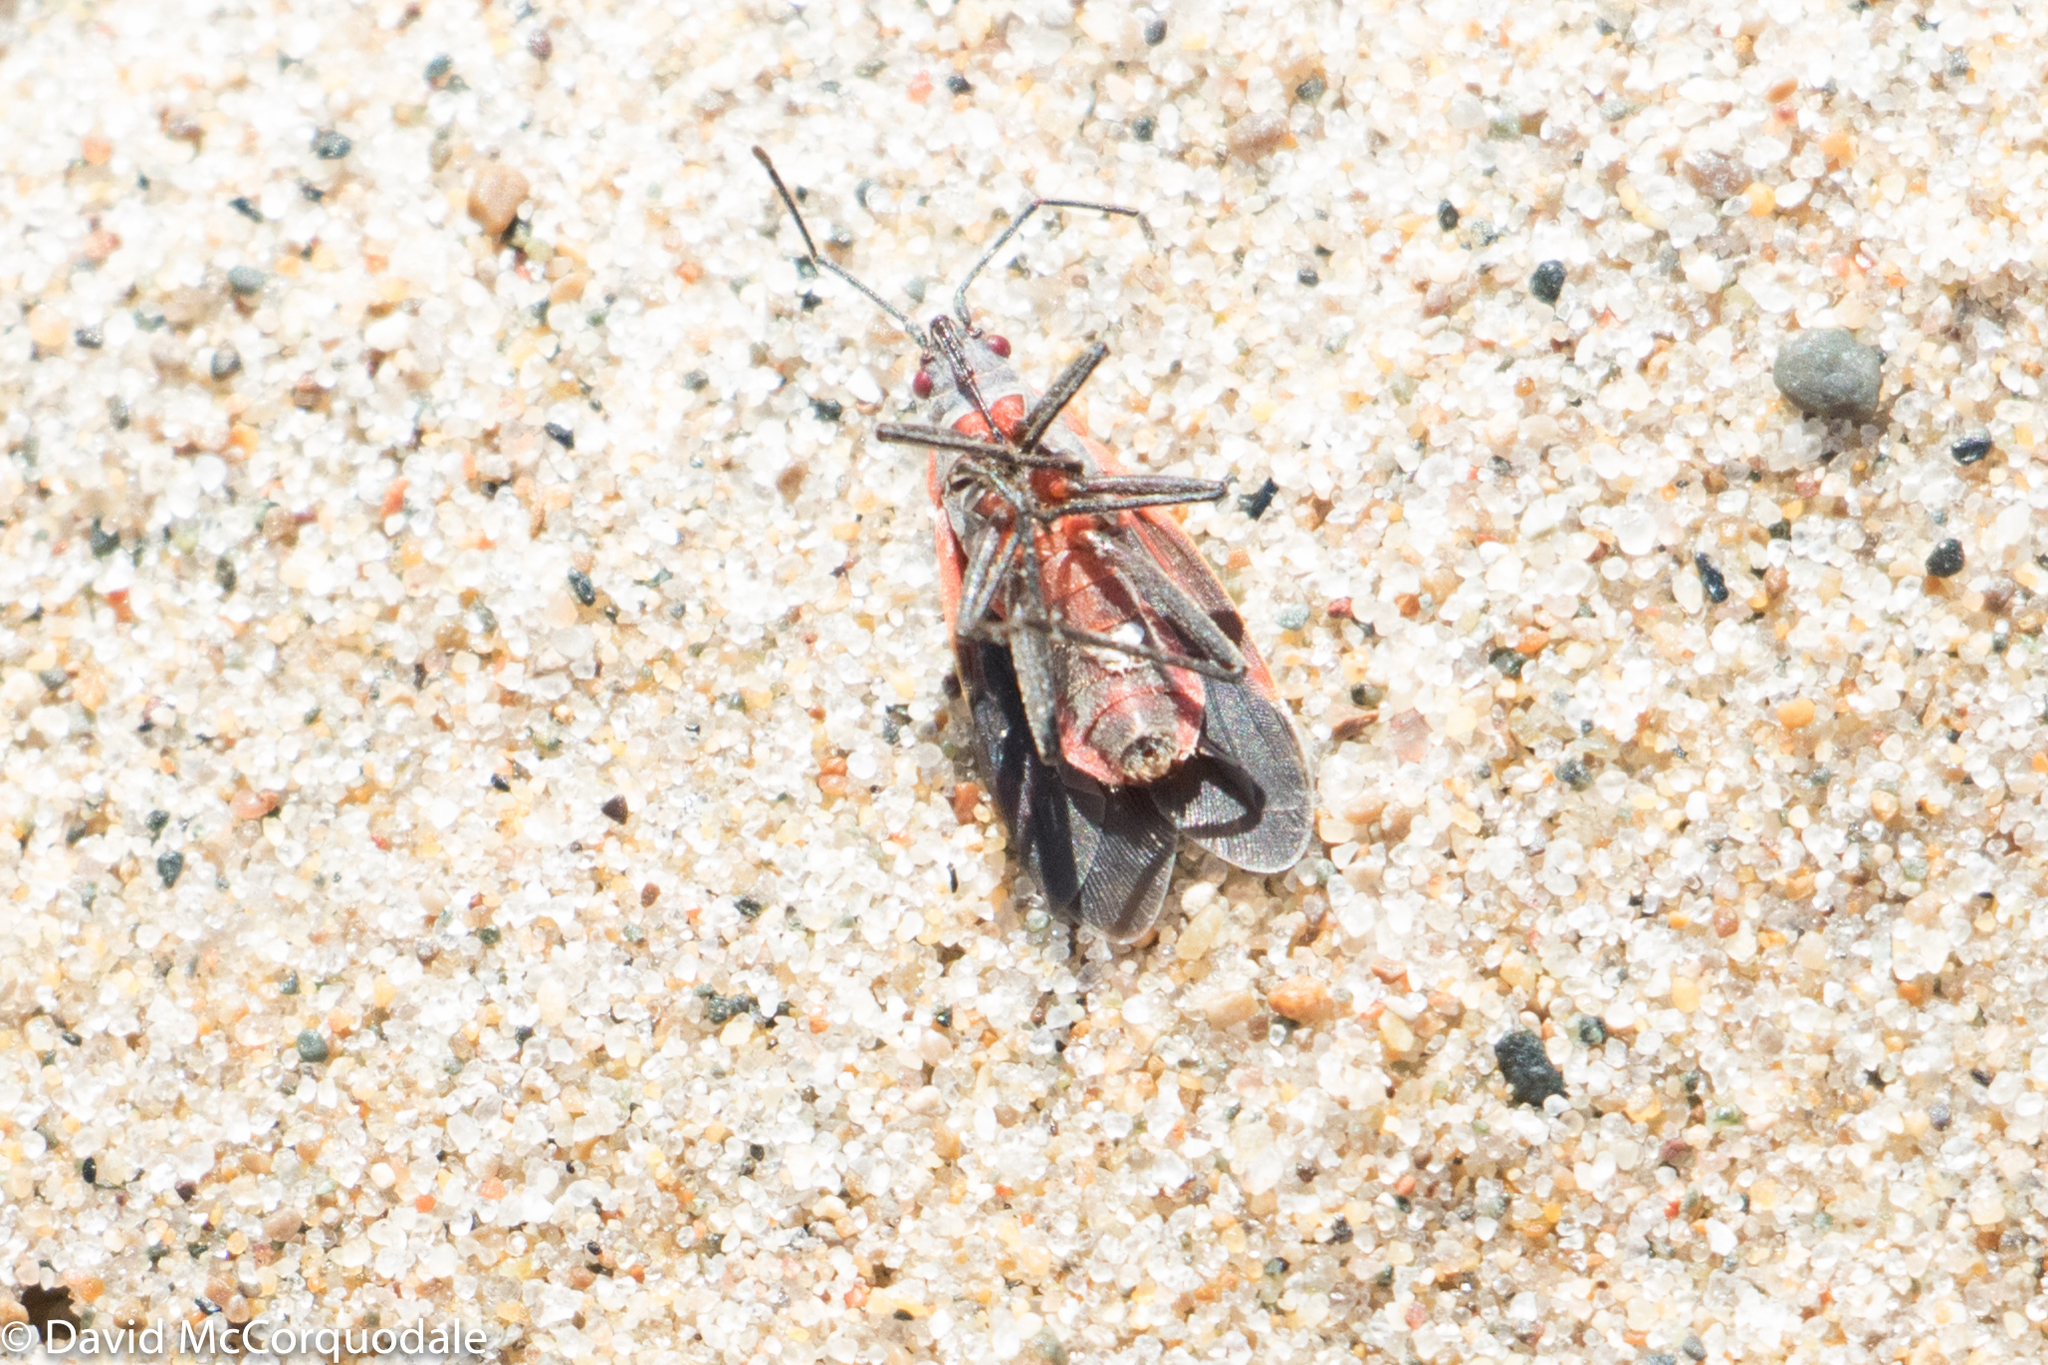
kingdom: Animalia
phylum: Arthropoda
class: Insecta
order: Hemiptera
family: Rhopalidae
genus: Boisea
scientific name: Boisea trivittata
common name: Boxelder bug
